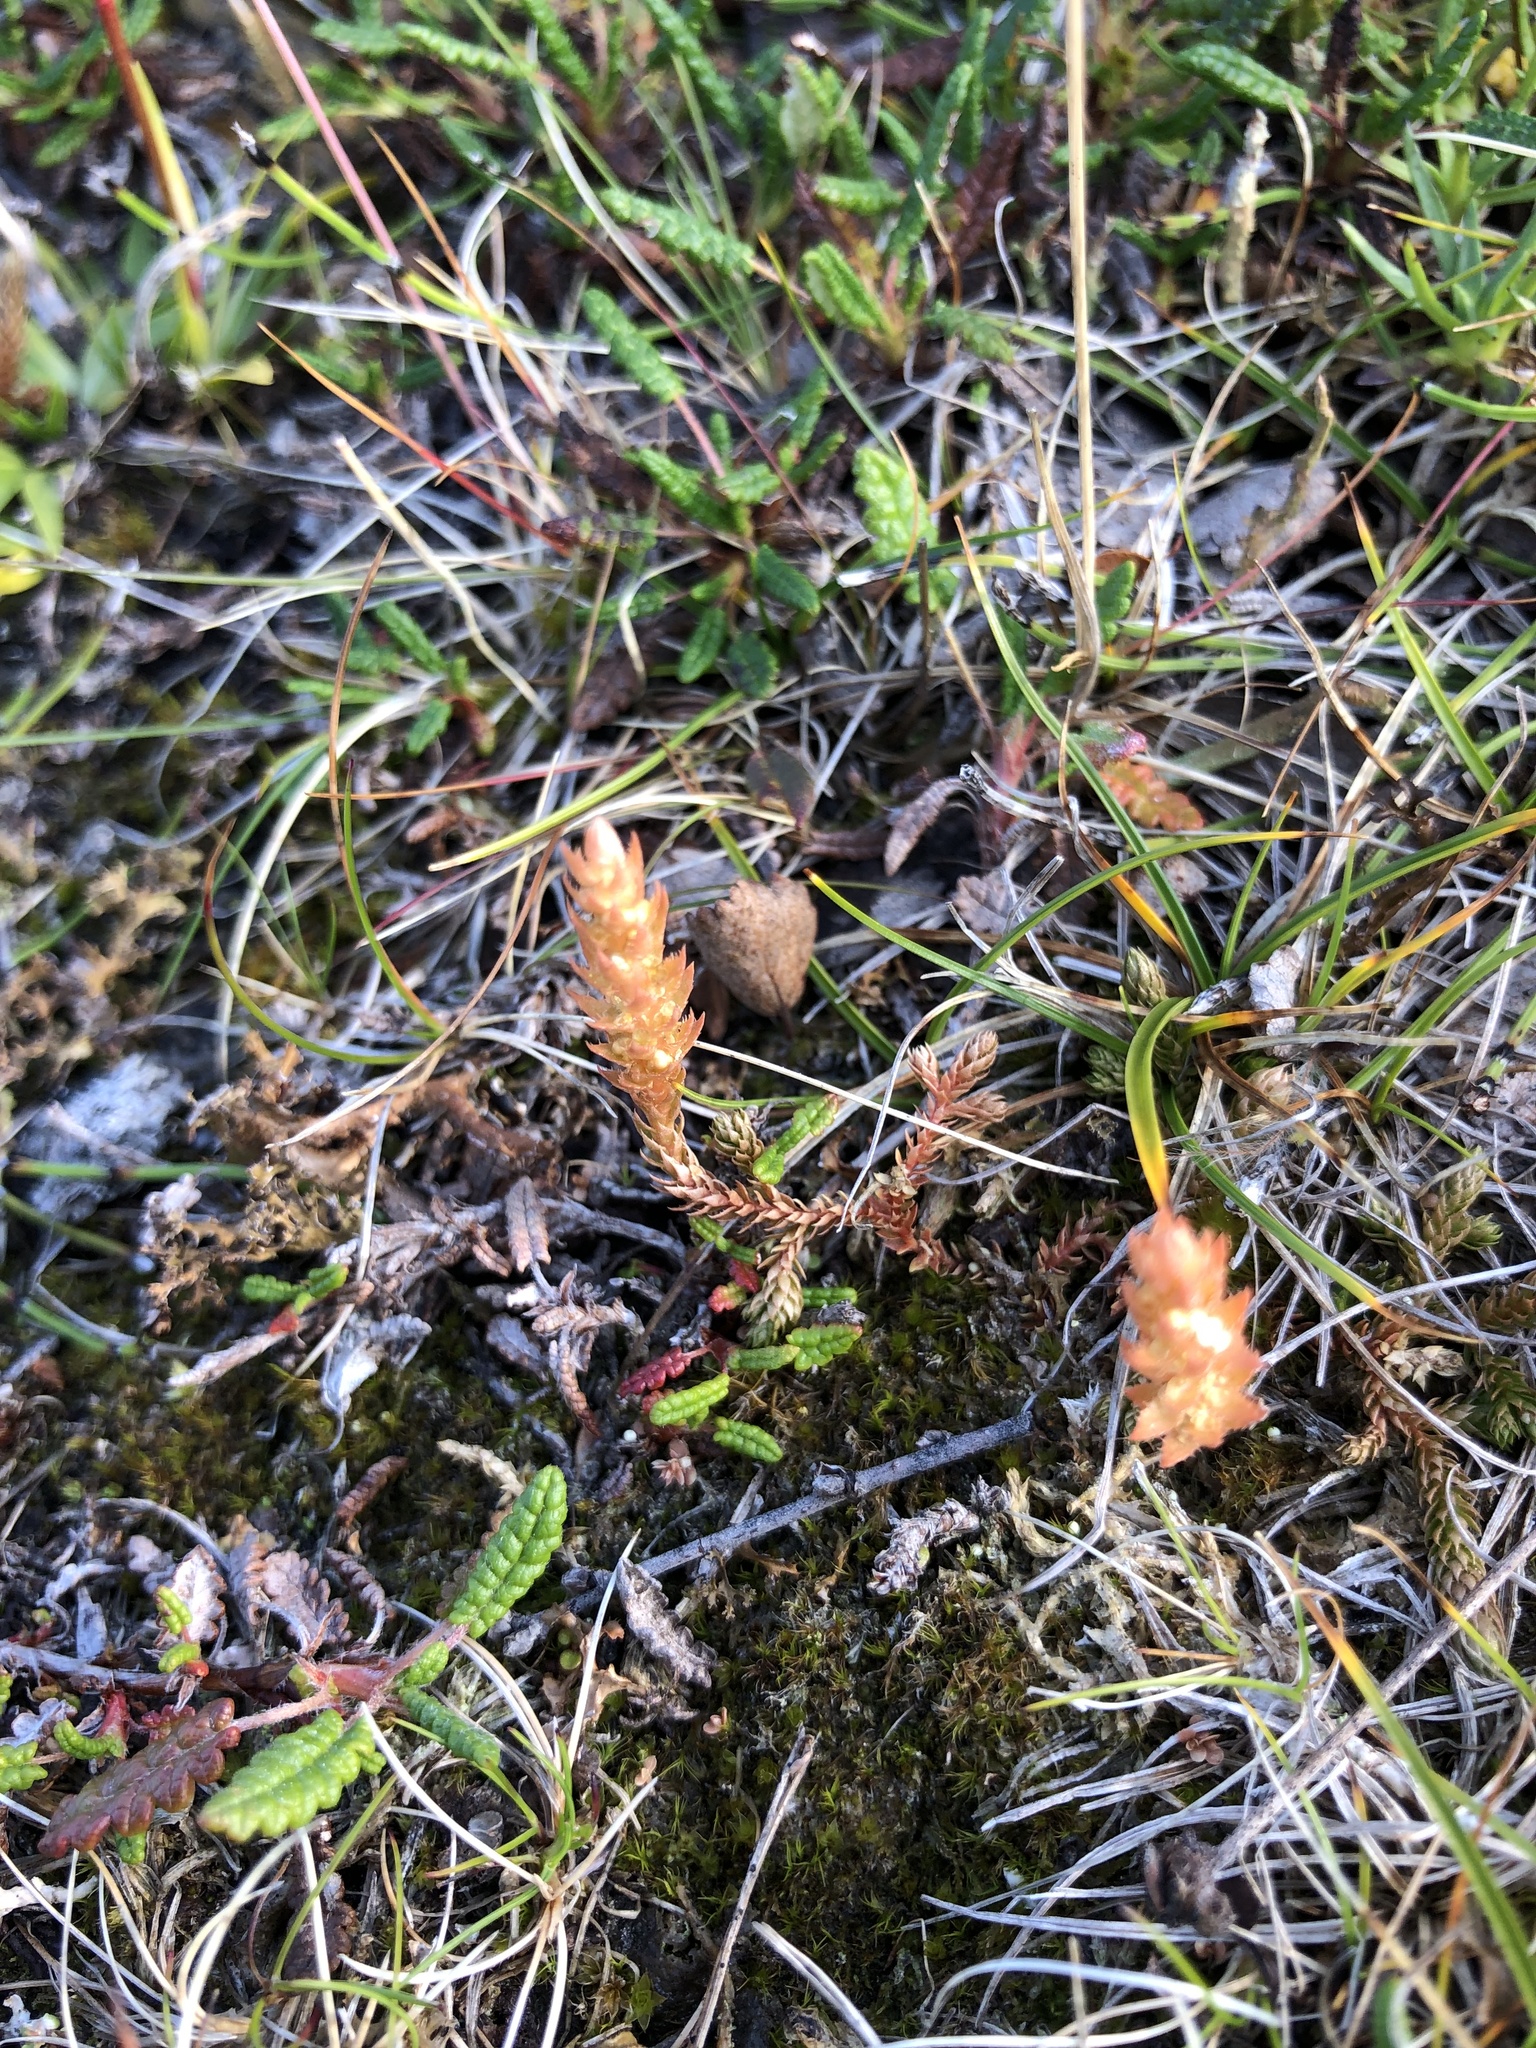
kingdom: Plantae
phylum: Tracheophyta
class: Lycopodiopsida
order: Selaginellales
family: Selaginellaceae
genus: Selaginella
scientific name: Selaginella selaginoides
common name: Prickly mountain-moss
